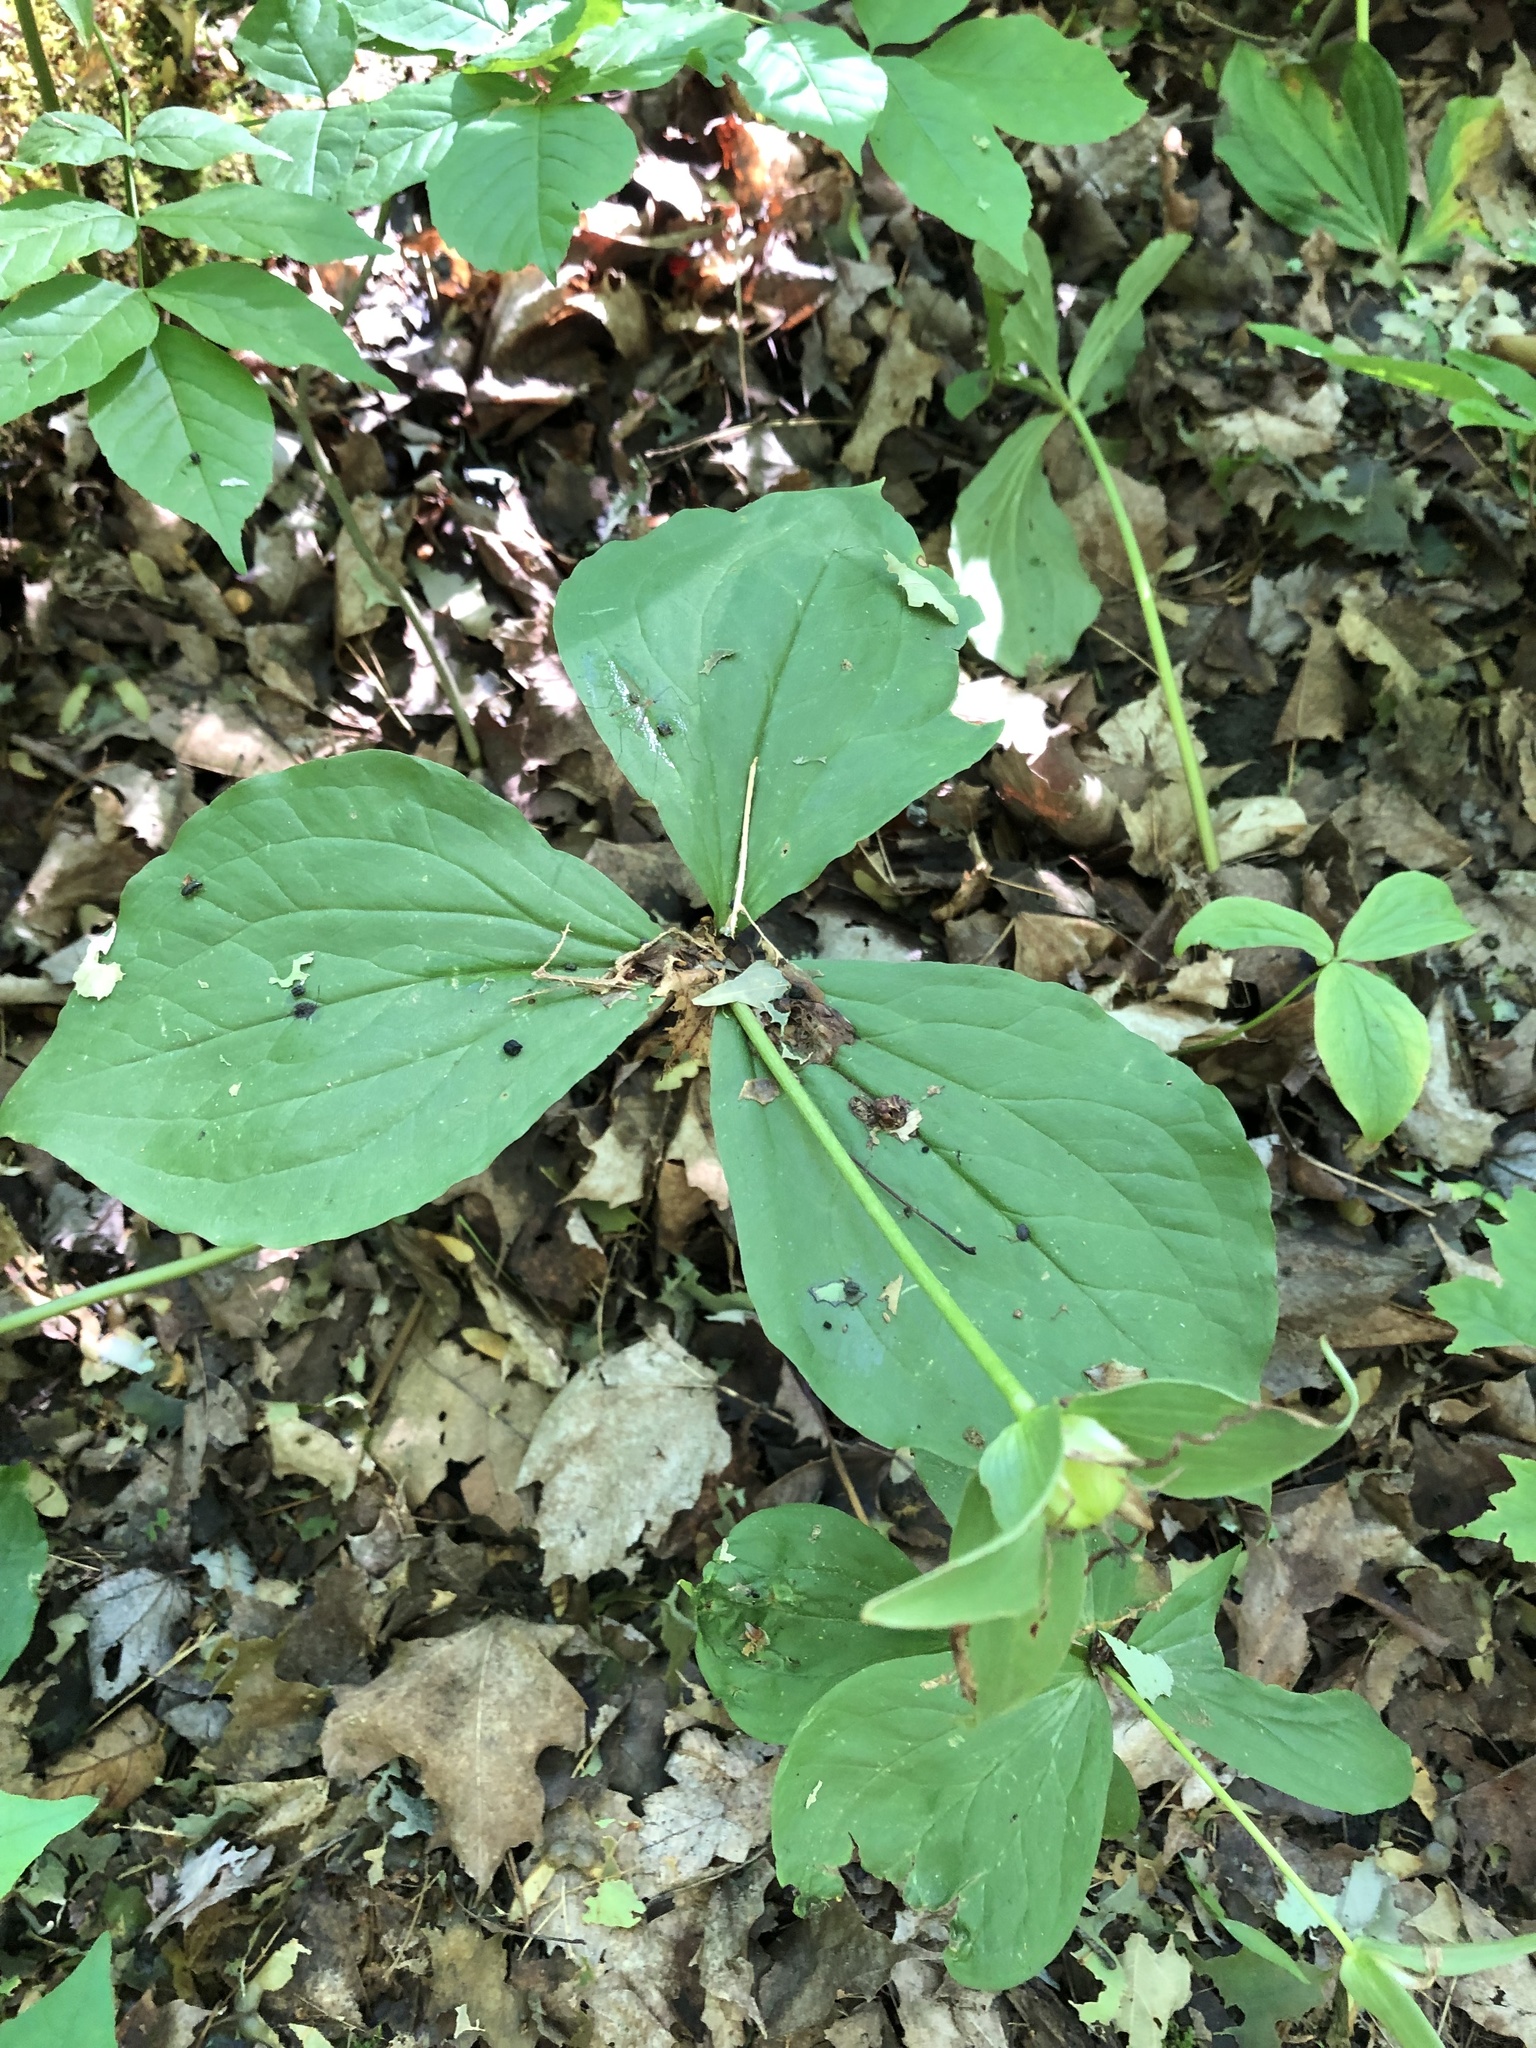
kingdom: Plantae
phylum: Tracheophyta
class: Liliopsida
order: Liliales
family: Melanthiaceae
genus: Trillium
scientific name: Trillium grandiflorum
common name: Great white trillium
